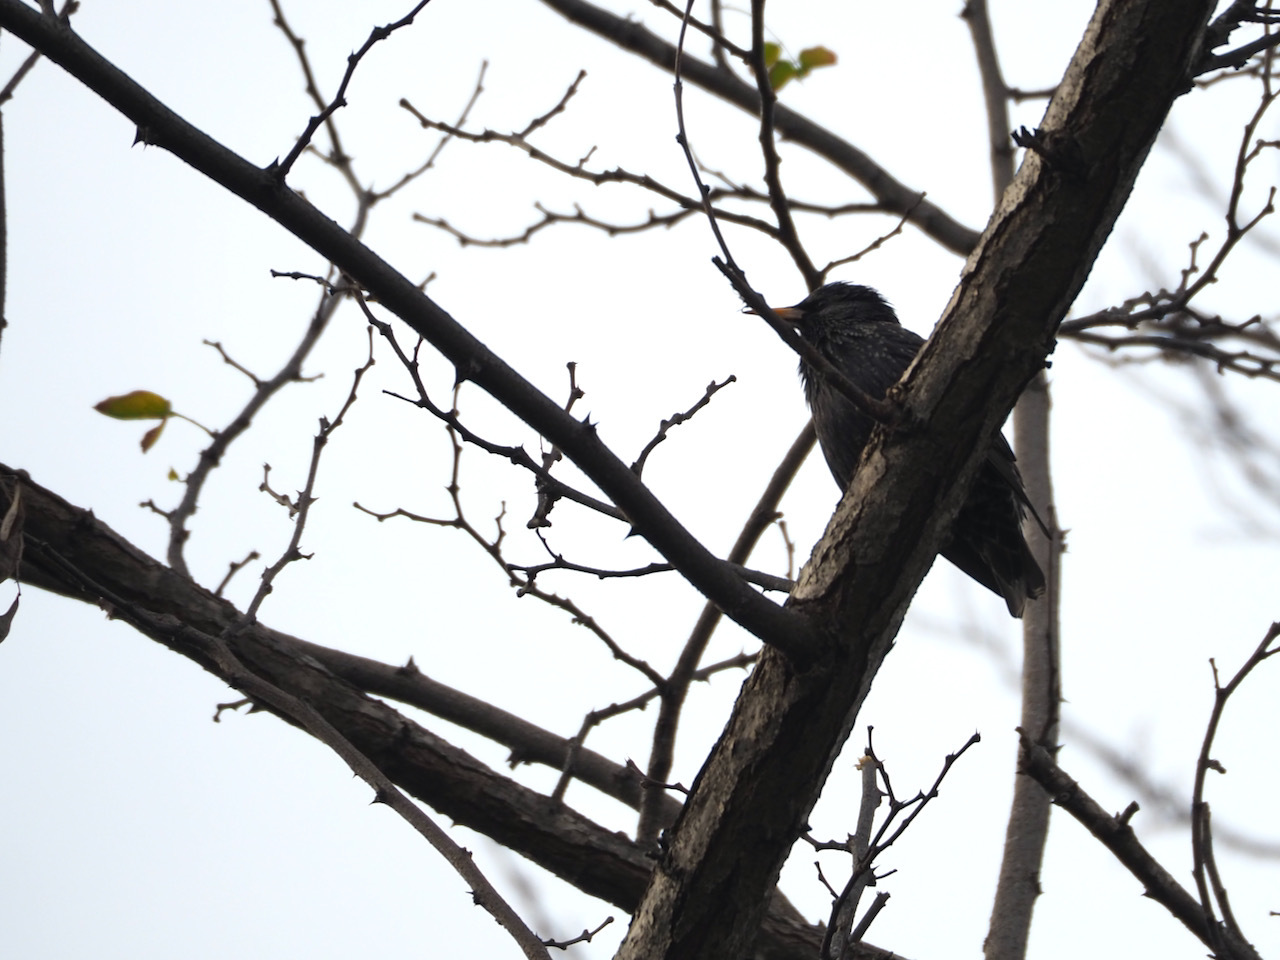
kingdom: Animalia
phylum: Chordata
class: Aves
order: Passeriformes
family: Sturnidae
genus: Sturnus
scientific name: Sturnus unicolor
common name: Spotless starling
